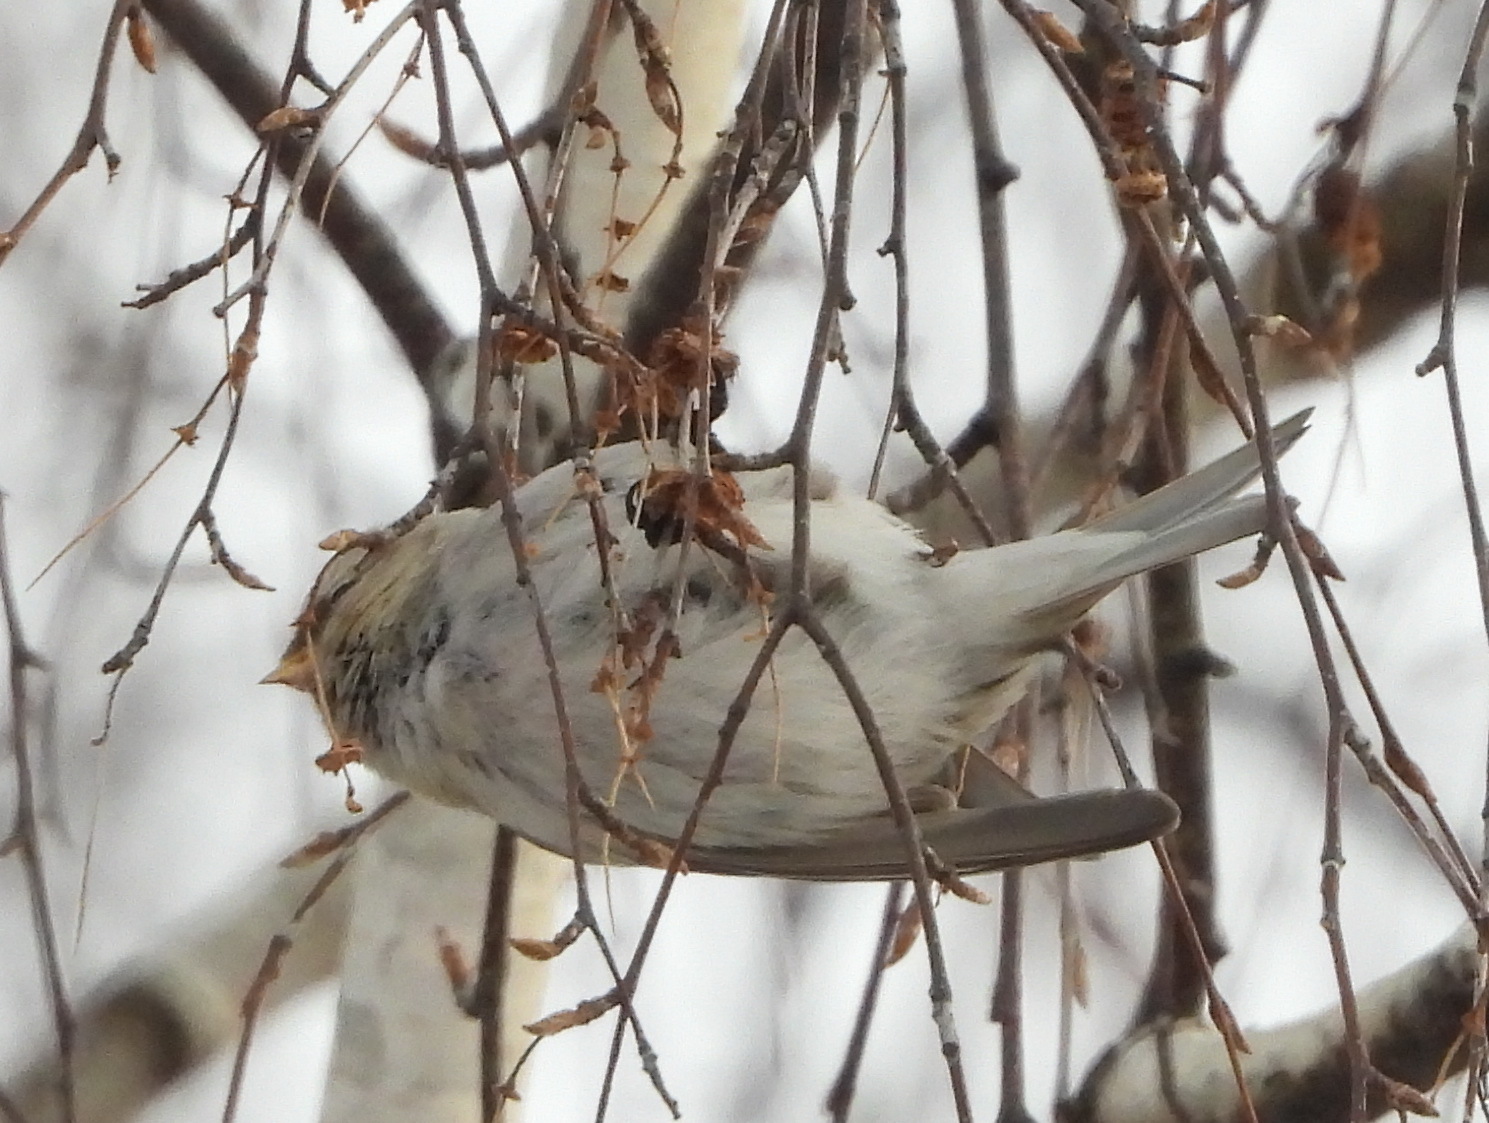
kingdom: Animalia
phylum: Chordata
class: Aves
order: Passeriformes
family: Fringillidae
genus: Acanthis
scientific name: Acanthis hornemanni
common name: Arctic redpoll
